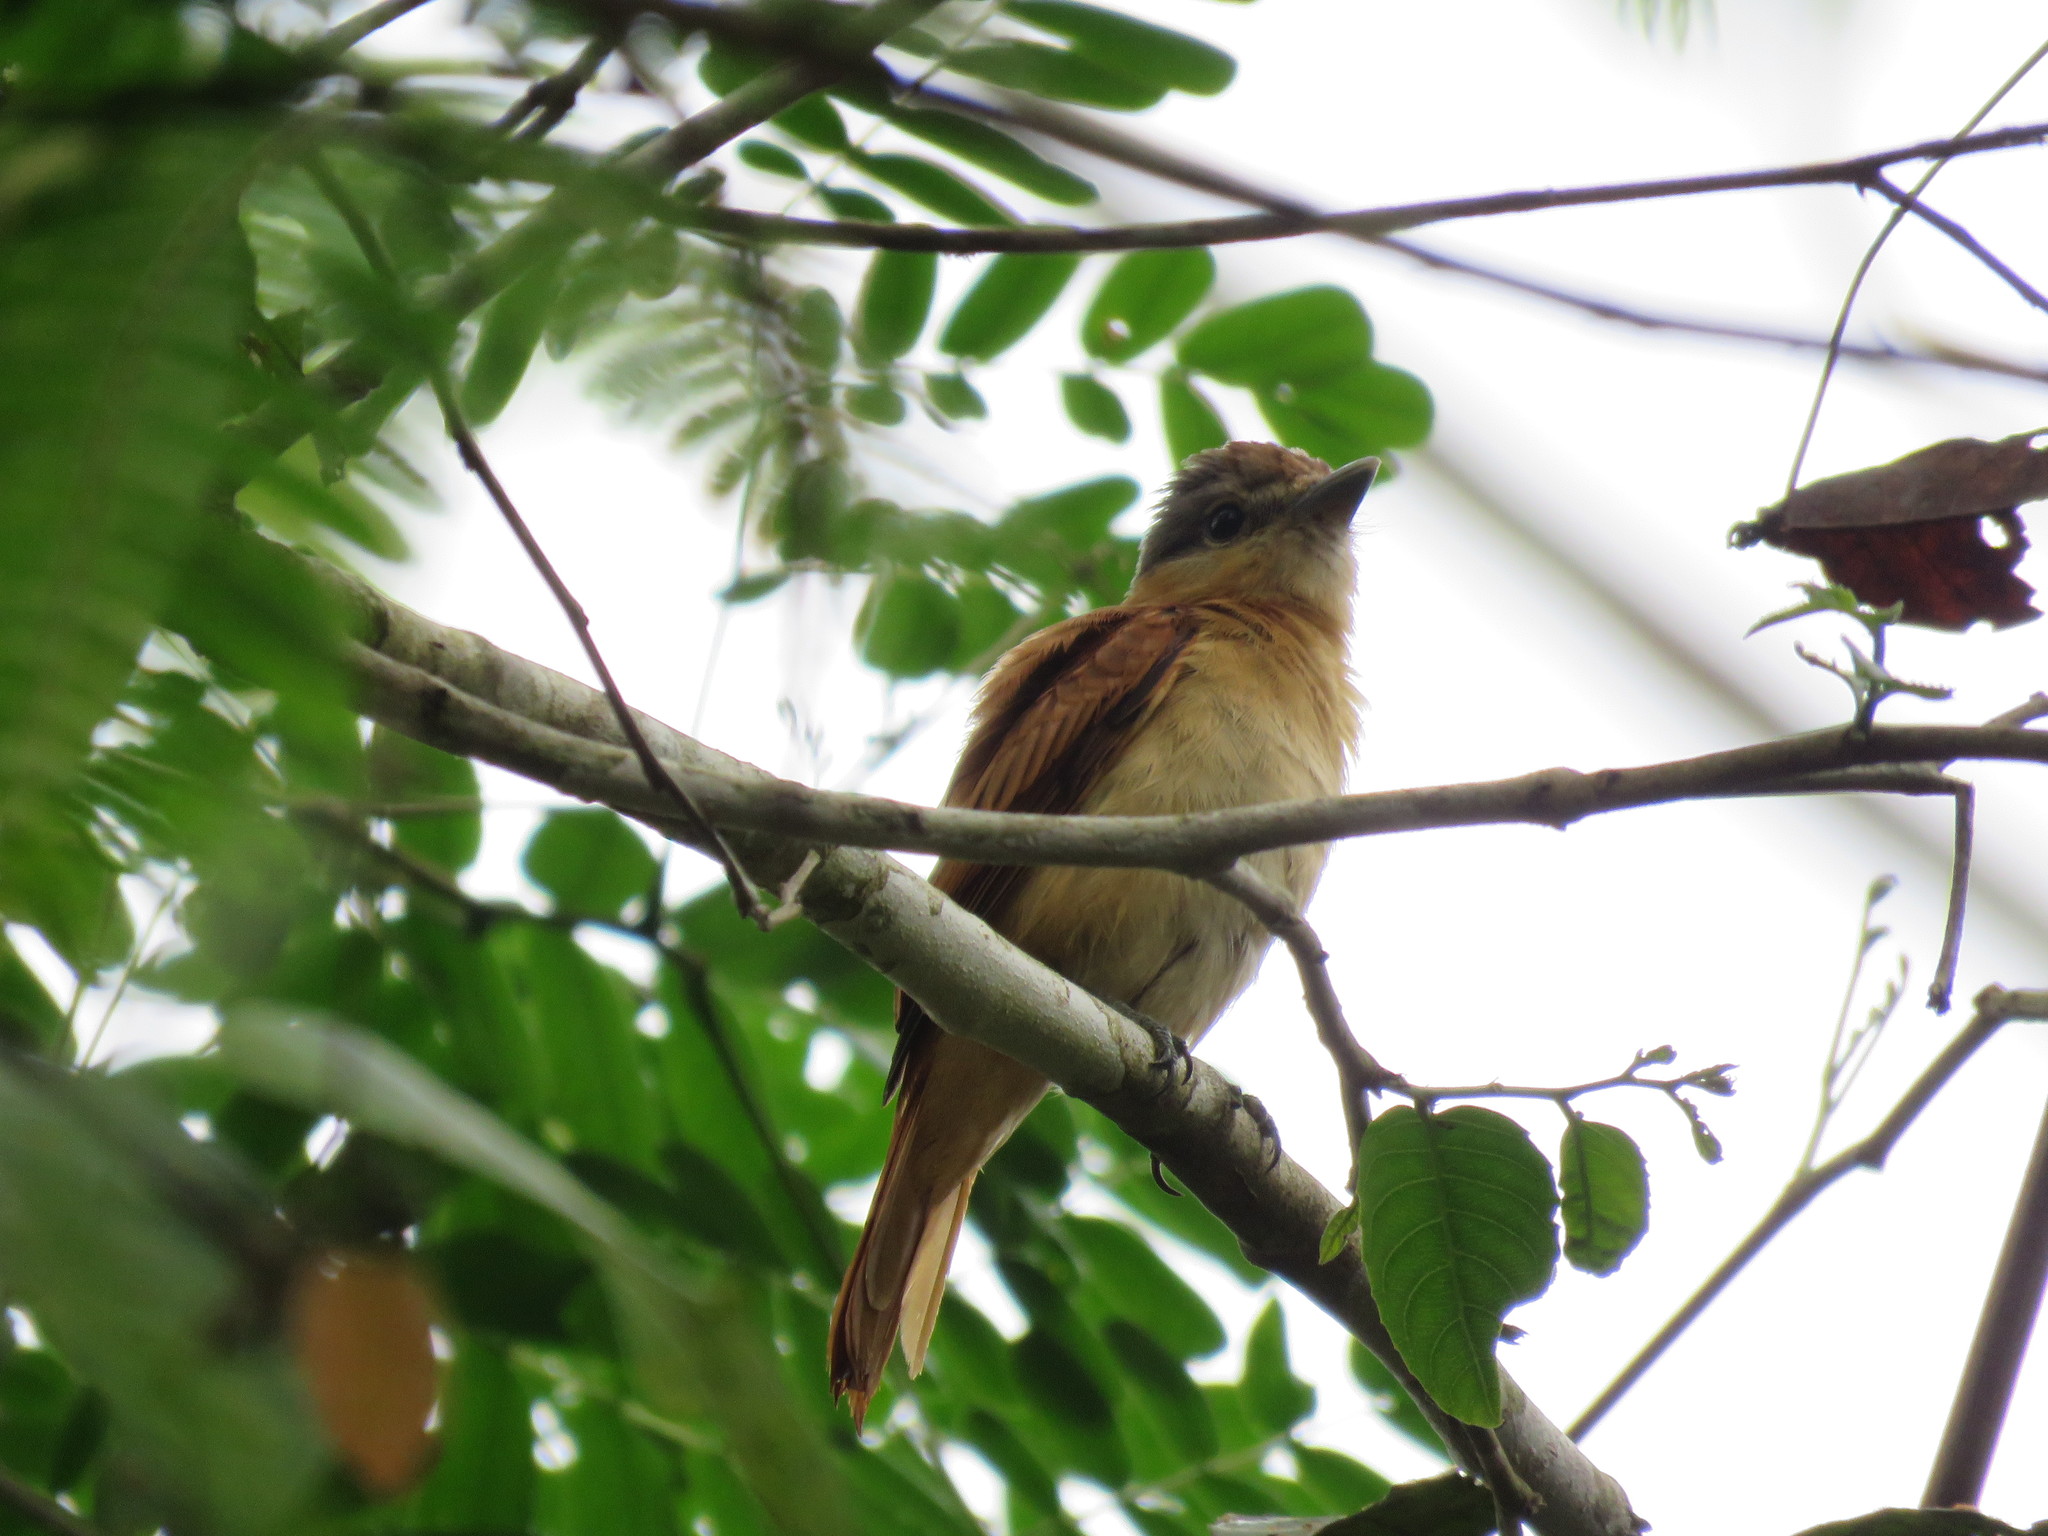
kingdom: Animalia
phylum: Chordata
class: Aves
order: Passeriformes
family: Cotingidae
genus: Pachyramphus
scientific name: Pachyramphus castaneus
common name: Chestnut-crowned becard
